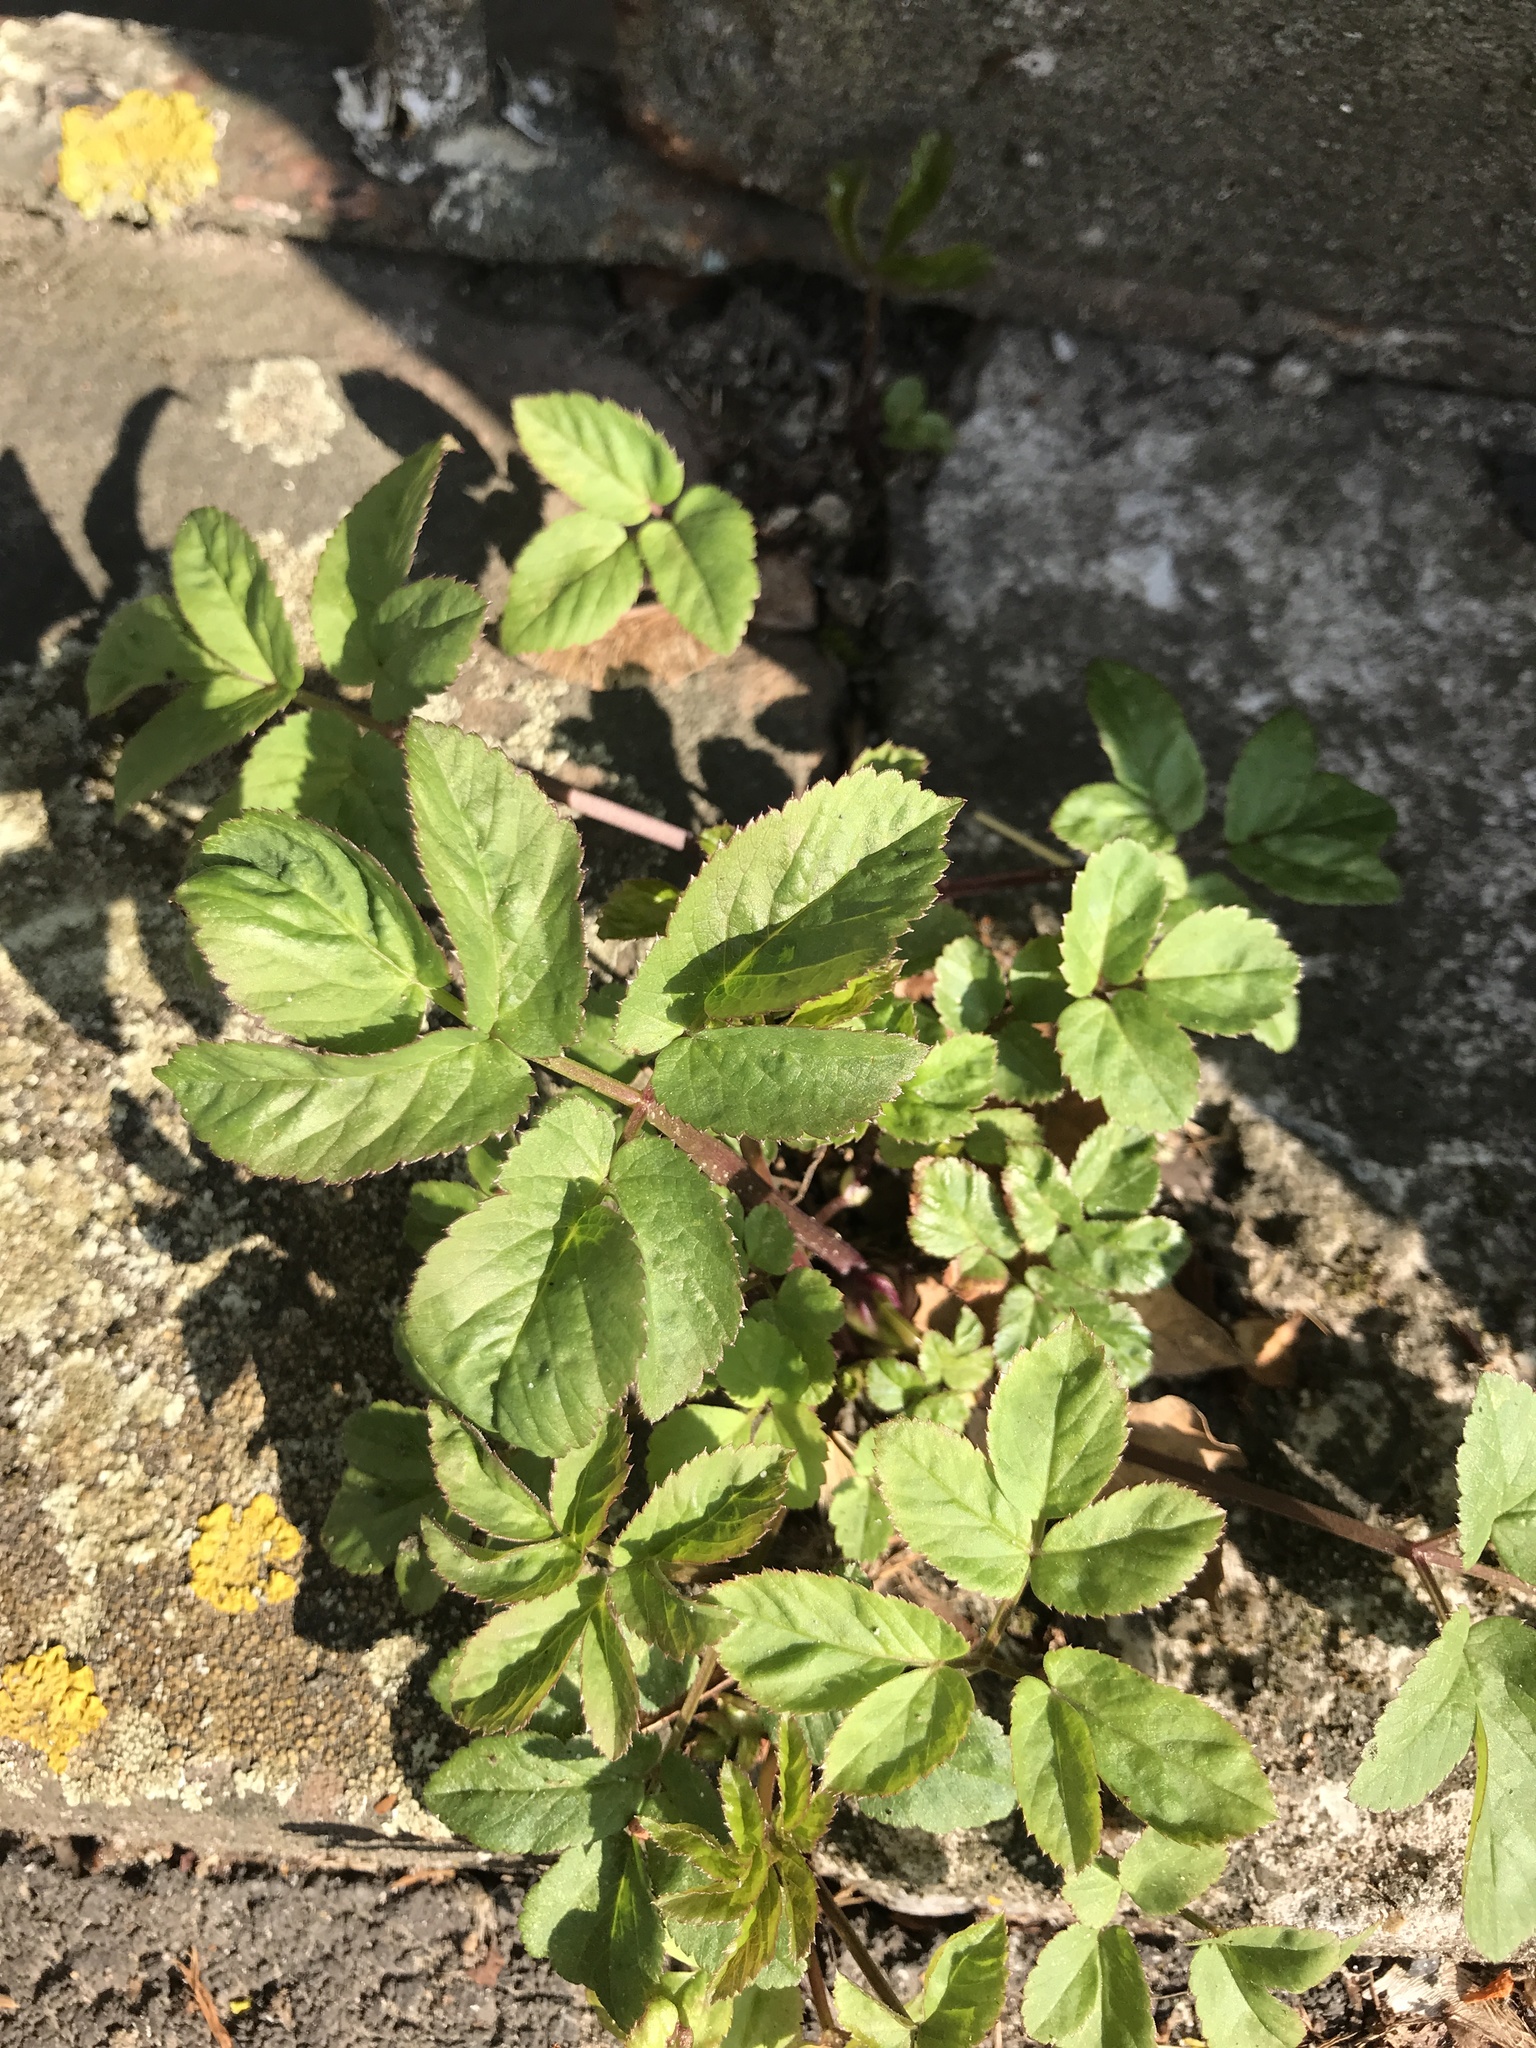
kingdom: Plantae
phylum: Tracheophyta
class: Magnoliopsida
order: Apiales
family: Apiaceae
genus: Aegopodium
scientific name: Aegopodium podagraria
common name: Ground-elder
